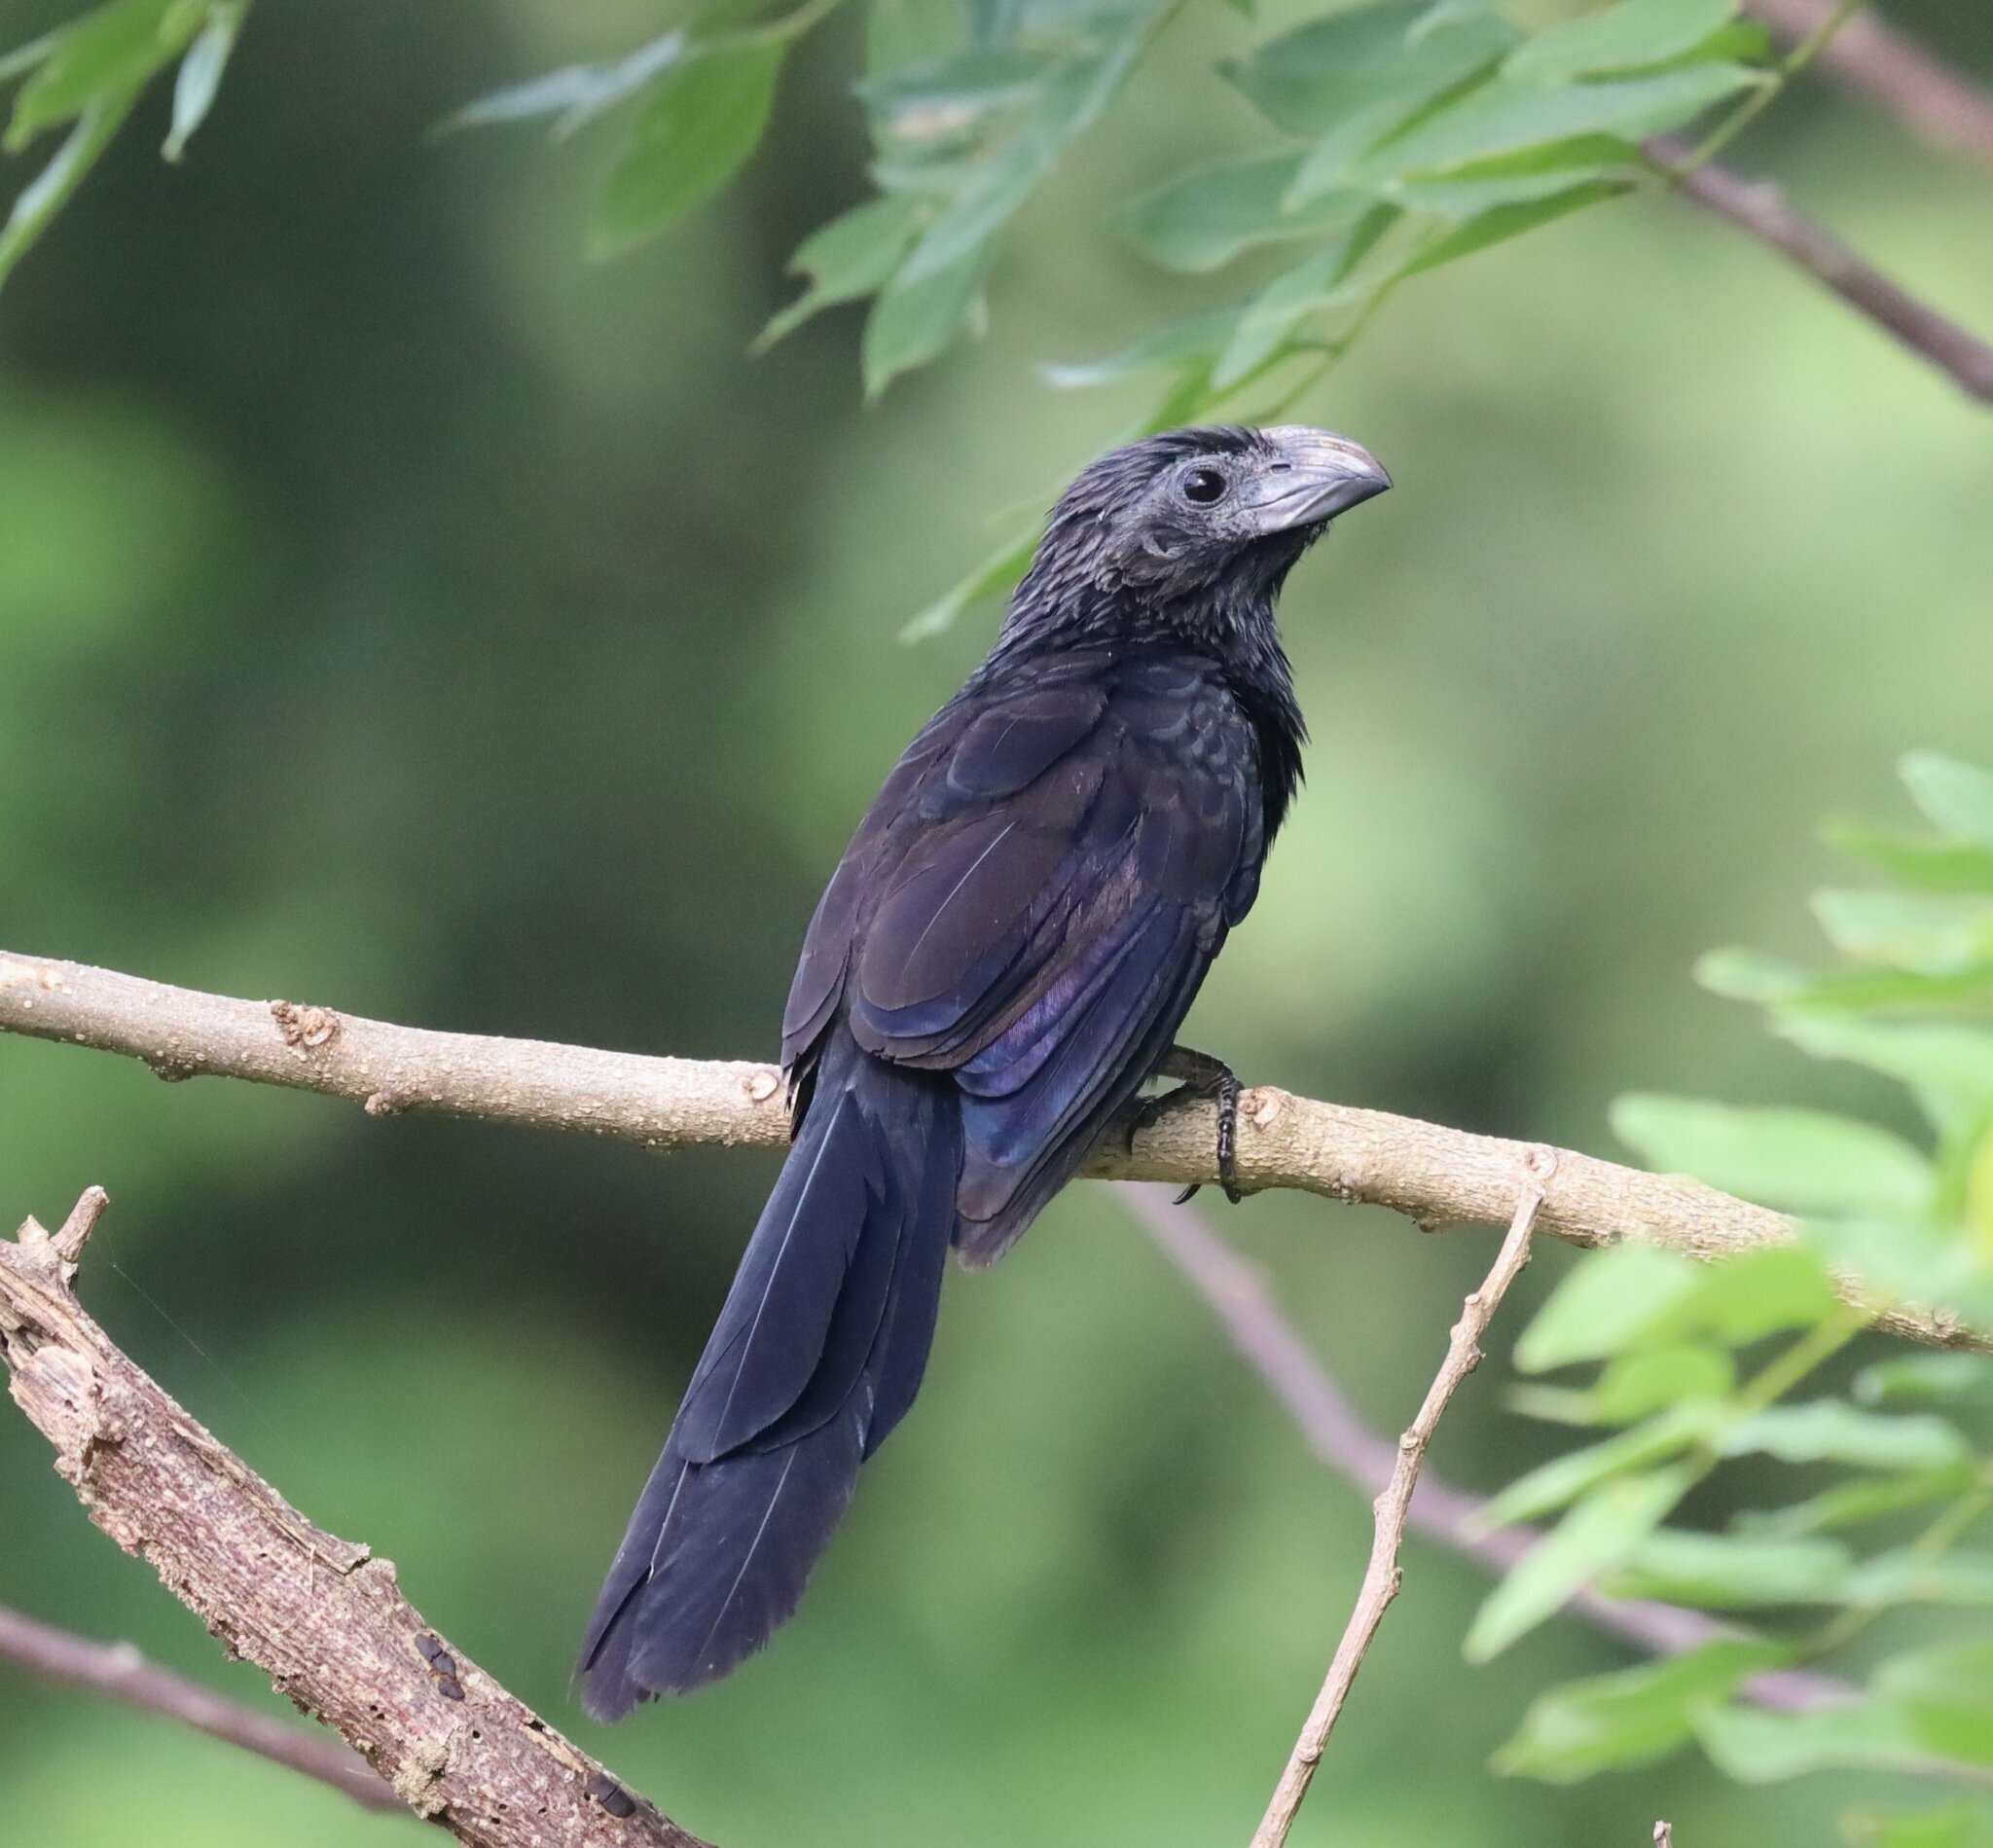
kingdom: Animalia
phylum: Chordata
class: Aves
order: Cuculiformes
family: Cuculidae
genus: Crotophaga
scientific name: Crotophaga sulcirostris
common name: Groove-billed ani
